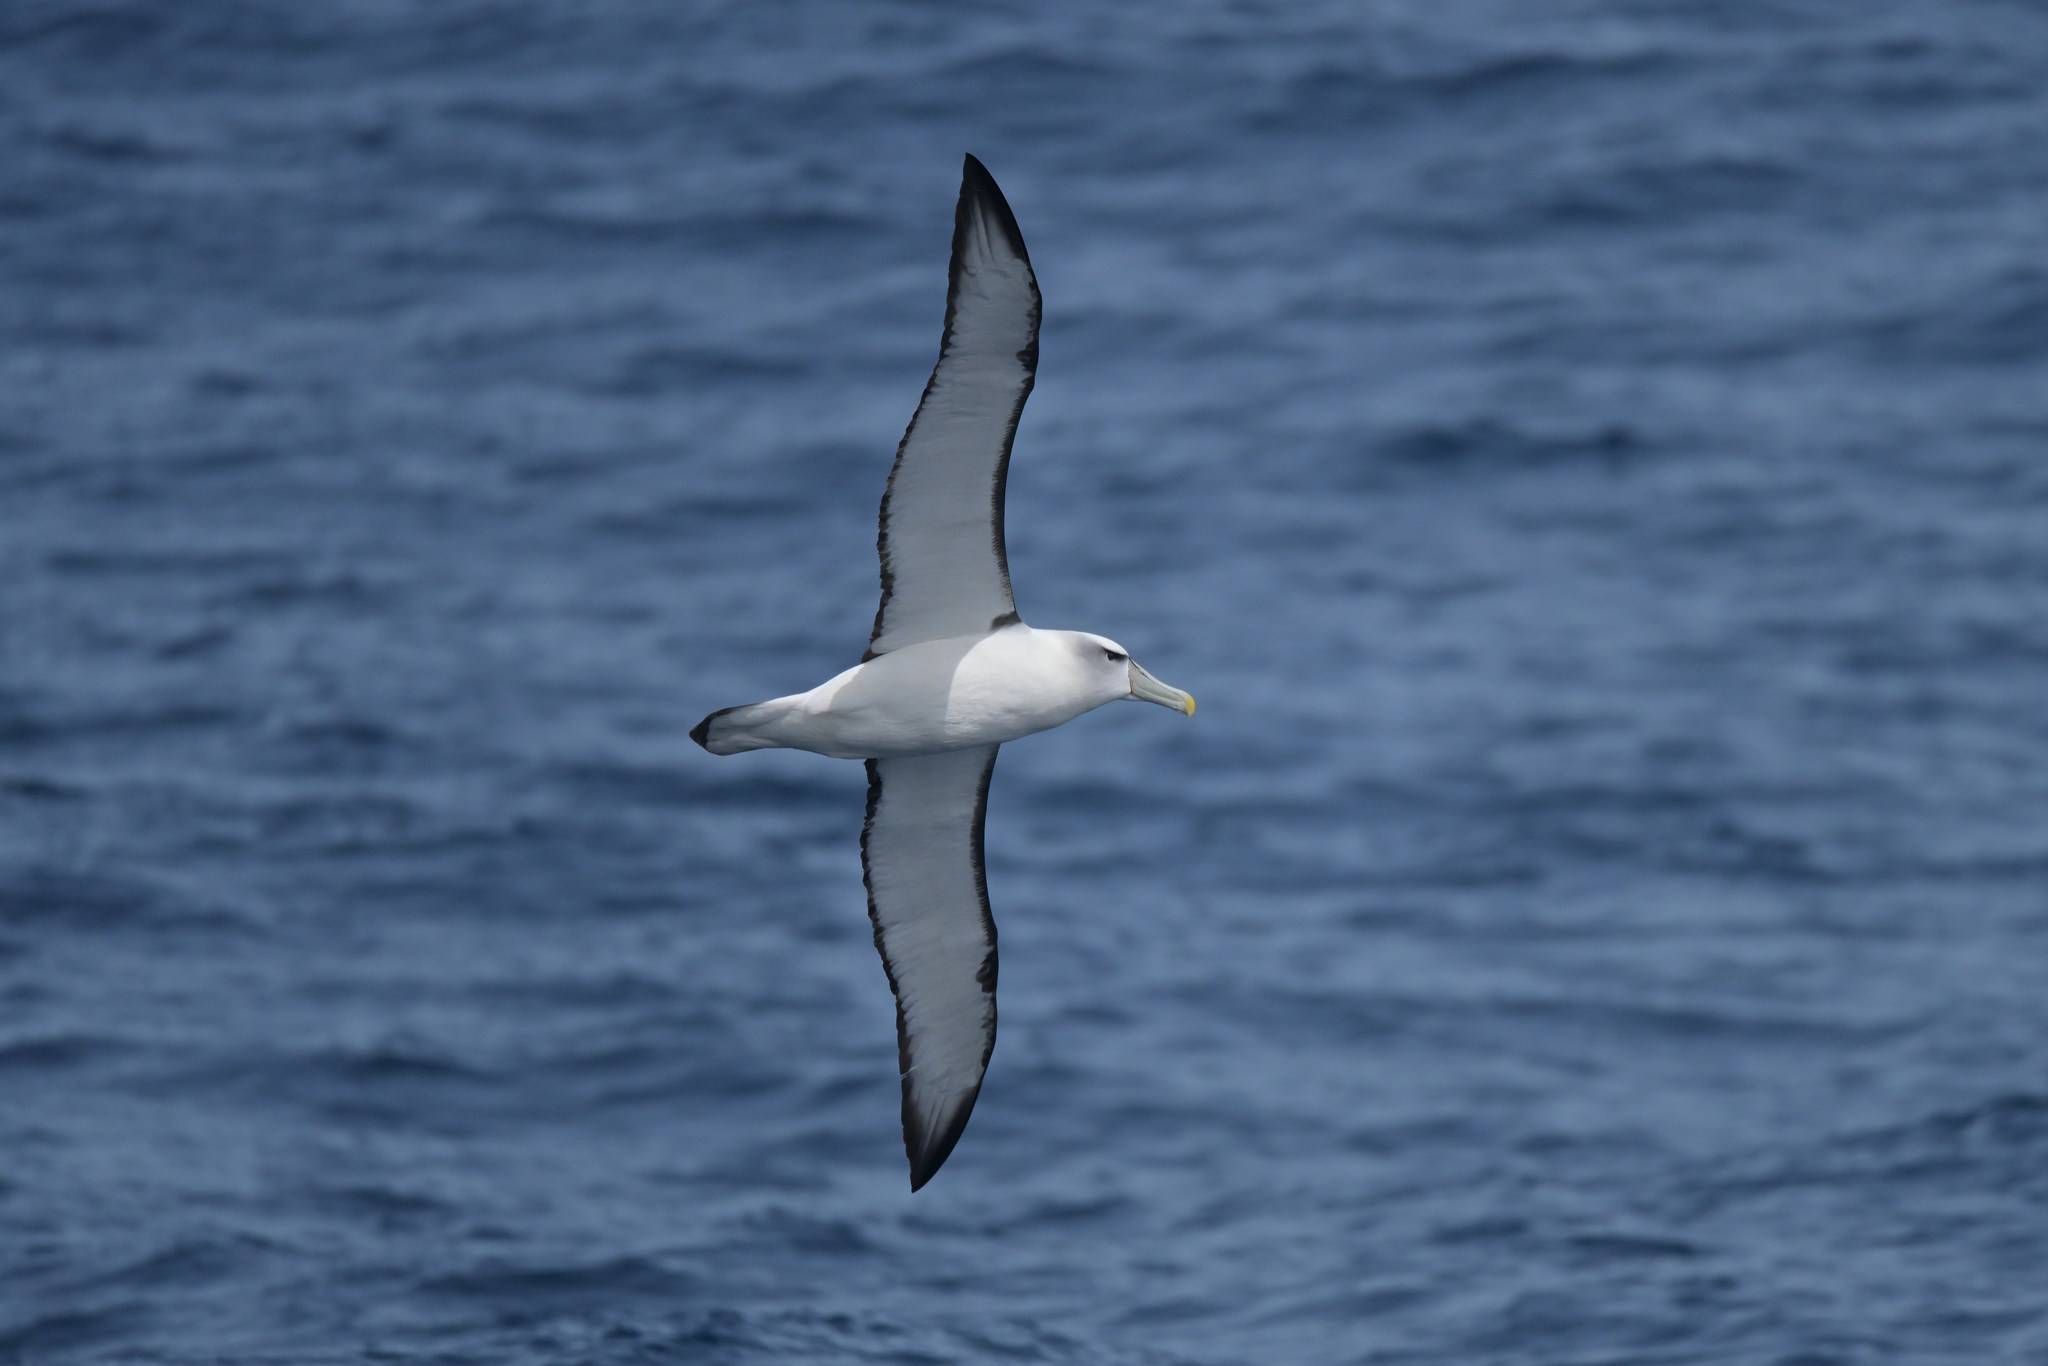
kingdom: Animalia
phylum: Chordata
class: Aves
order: Procellariiformes
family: Diomedeidae
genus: Thalassarche
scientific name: Thalassarche cauta
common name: Shy albatross
